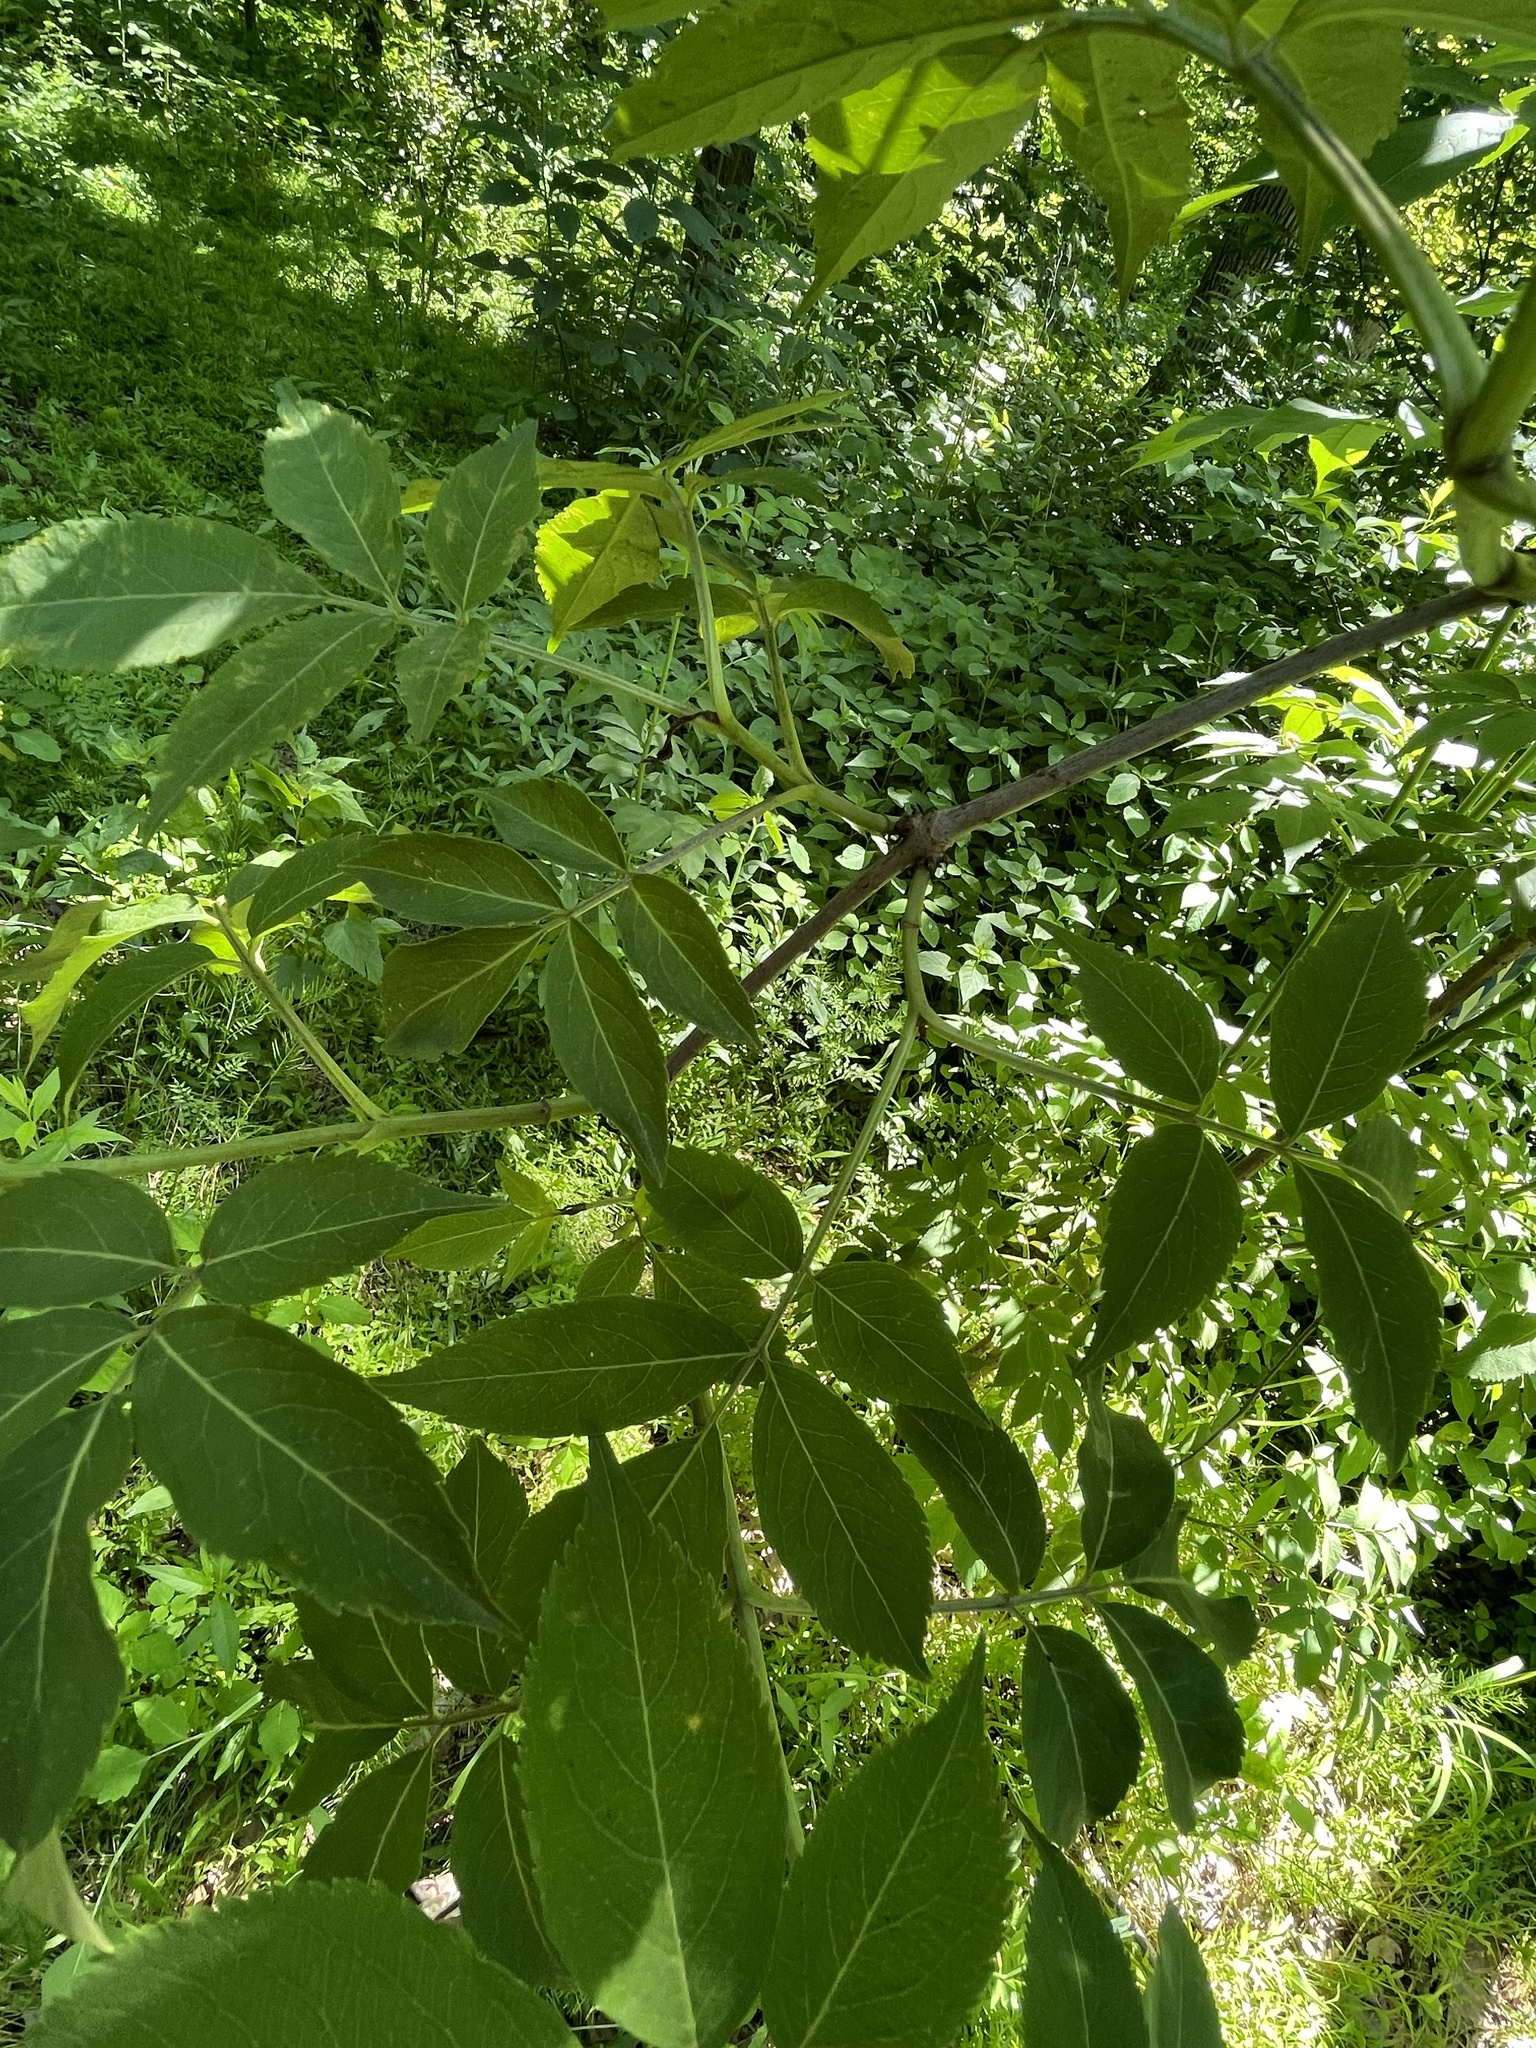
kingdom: Plantae
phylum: Tracheophyta
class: Magnoliopsida
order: Dipsacales
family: Viburnaceae
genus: Sambucus
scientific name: Sambucus canadensis
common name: American elder
